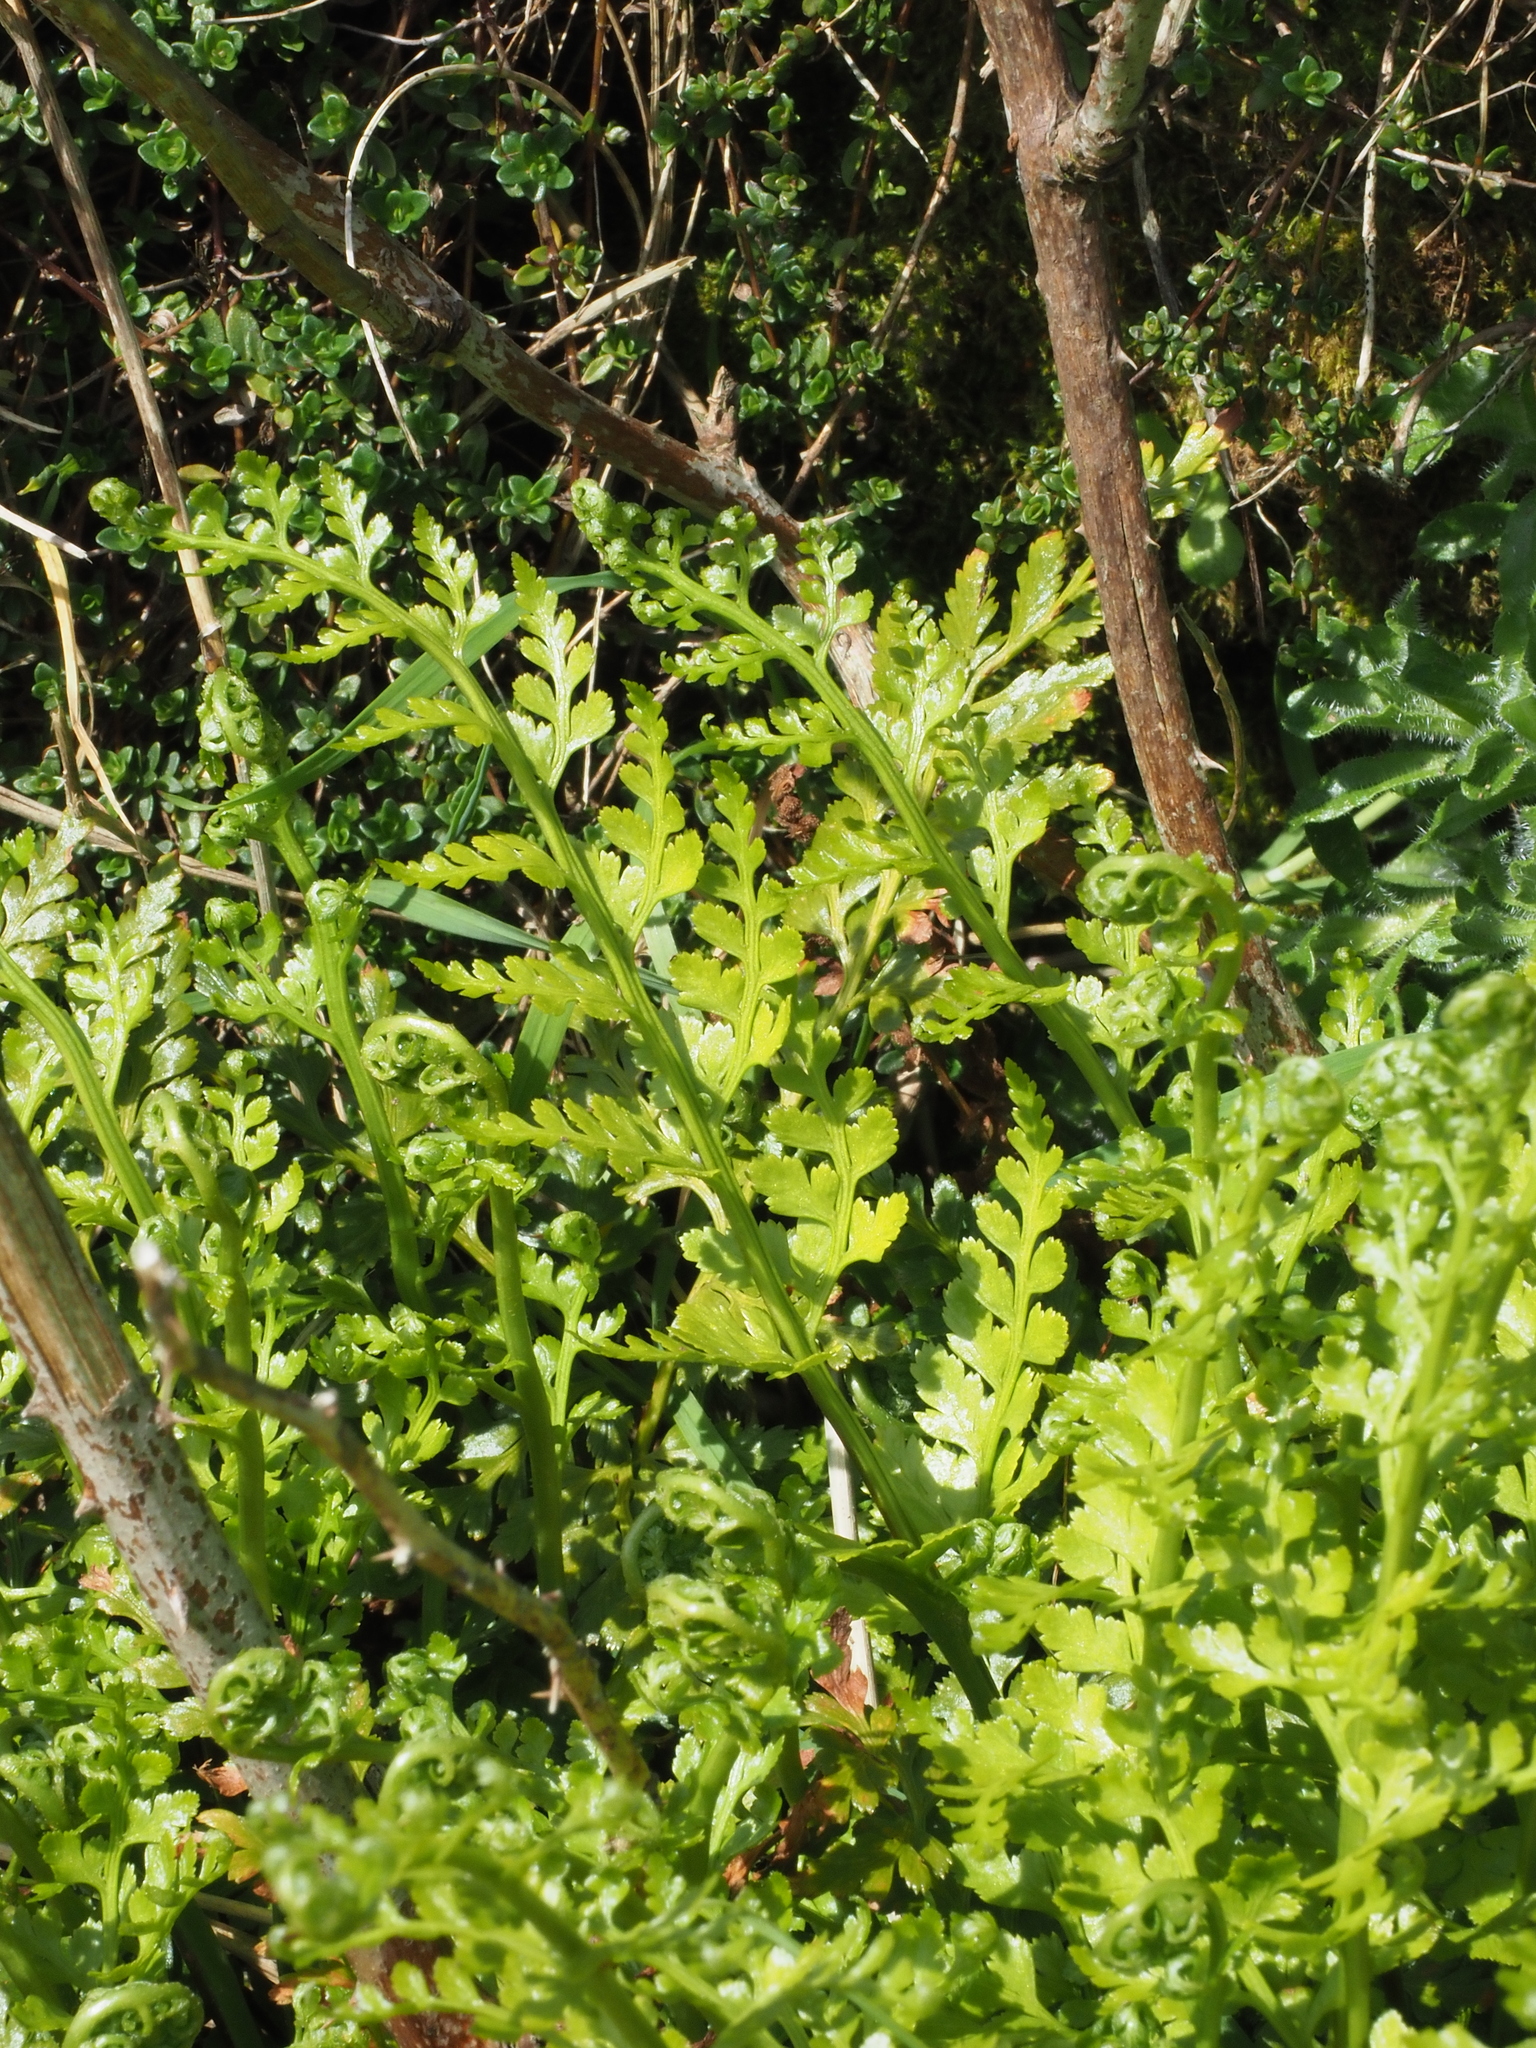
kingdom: Plantae
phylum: Tracheophyta
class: Polypodiopsida
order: Polypodiales
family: Aspleniaceae
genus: Asplenium
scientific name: Asplenium adiantum-nigrum
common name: Black spleenwort
